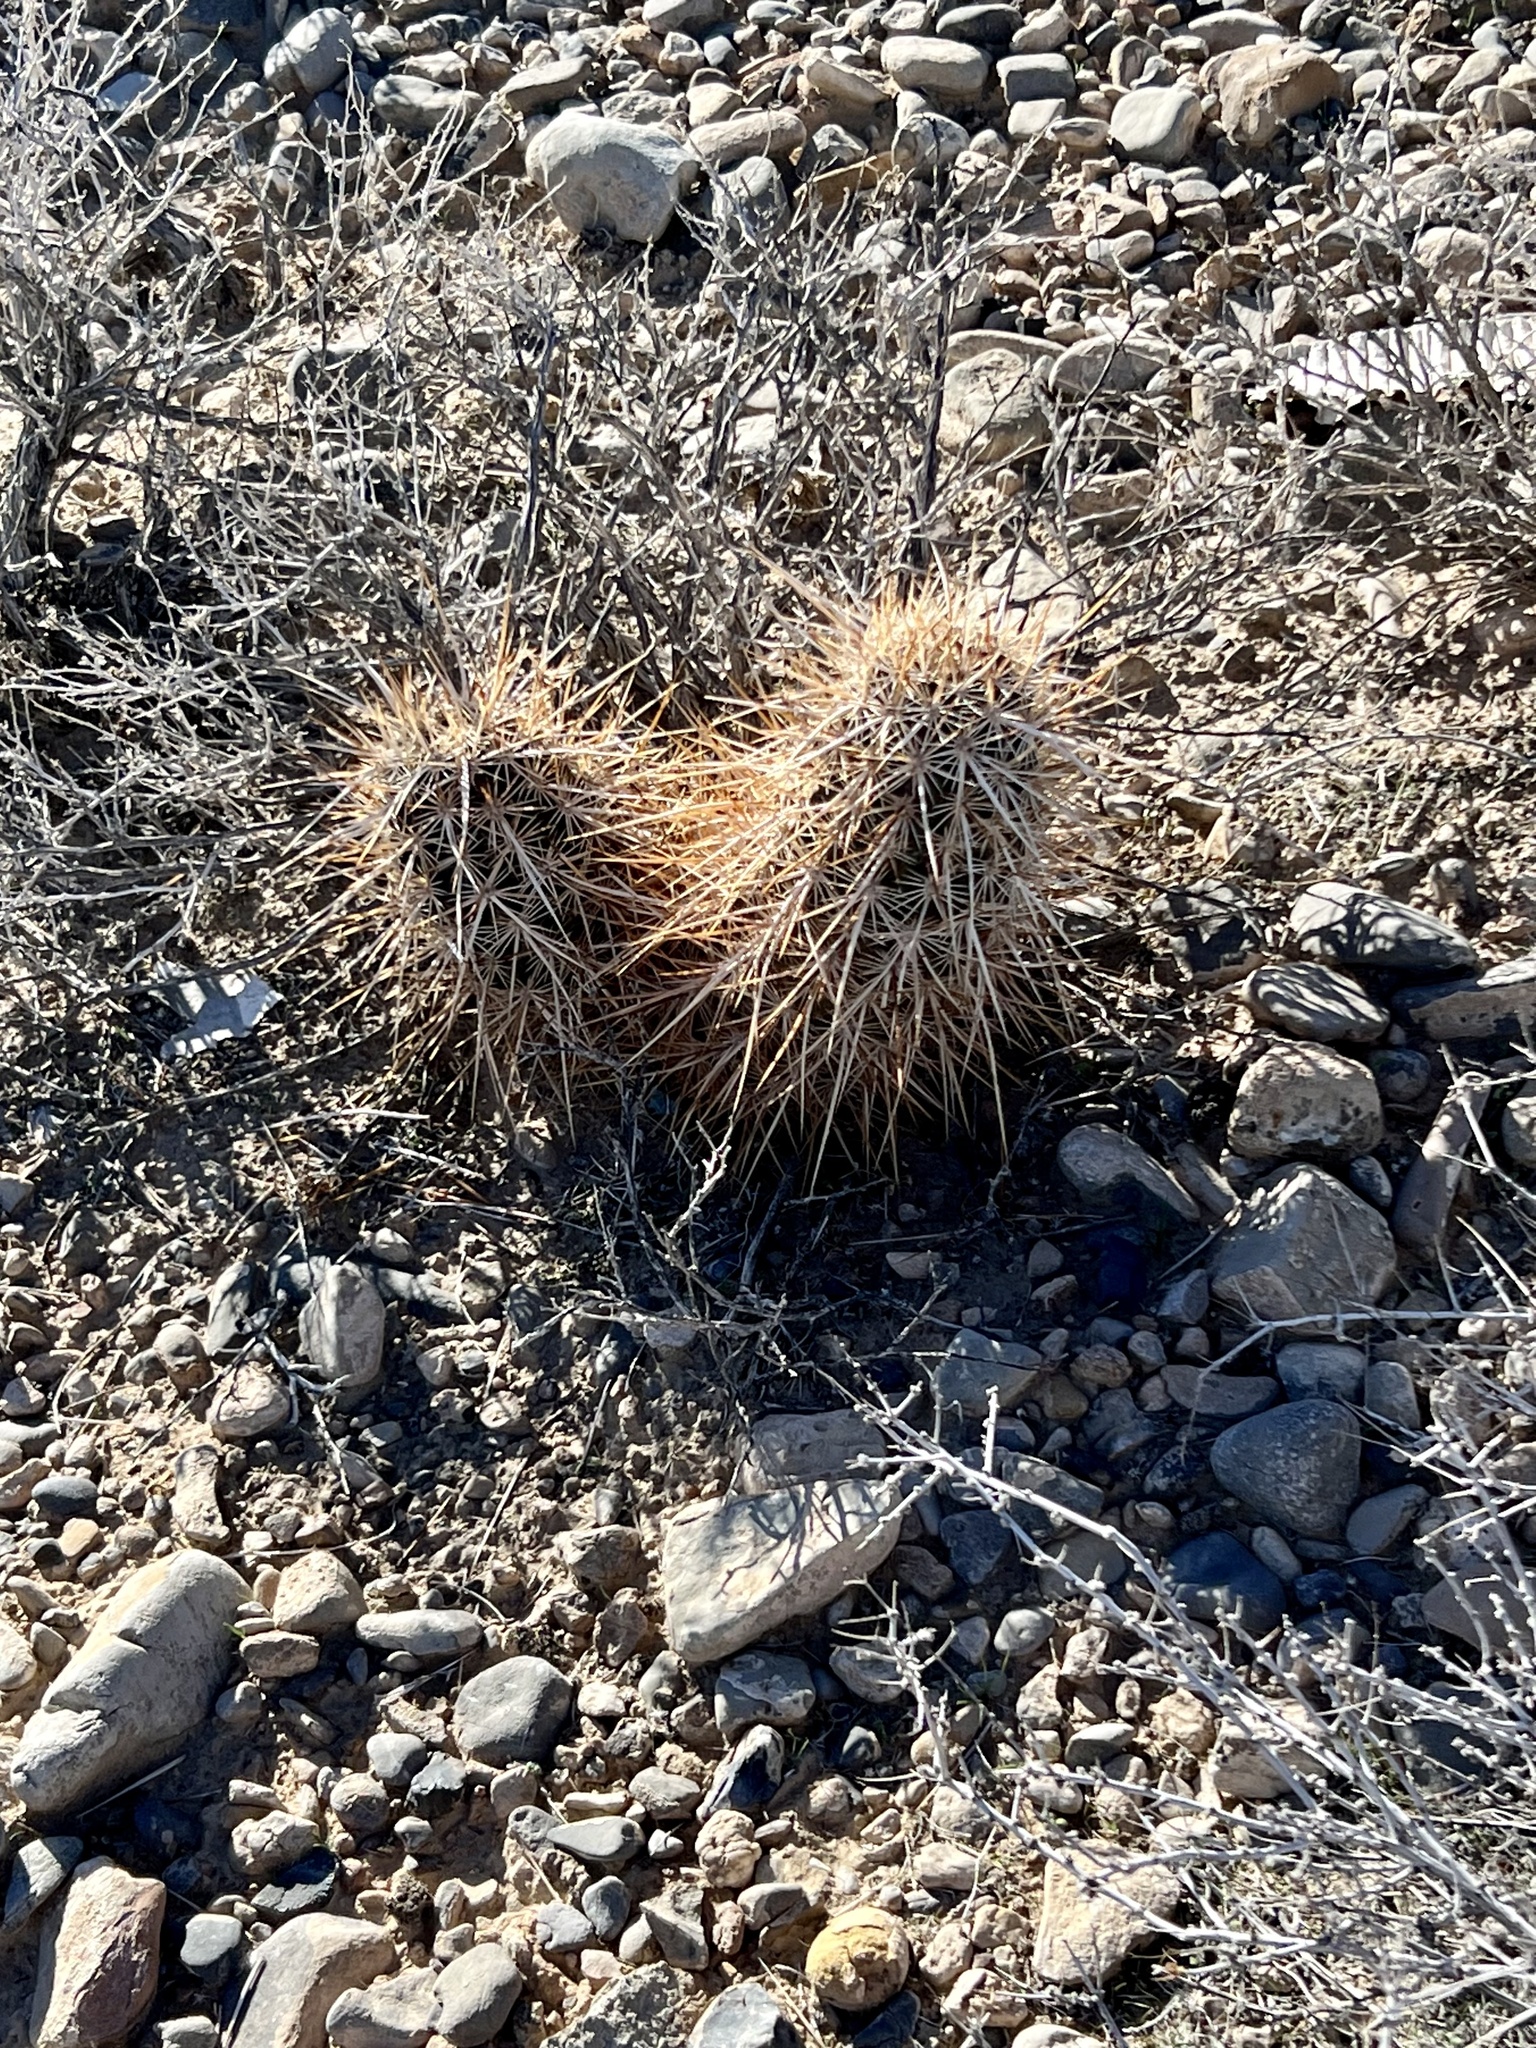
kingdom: Plantae
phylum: Tracheophyta
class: Magnoliopsida
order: Caryophyllales
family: Cactaceae
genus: Echinocereus
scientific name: Echinocereus engelmannii
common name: Engelmann's hedgehog cactus
